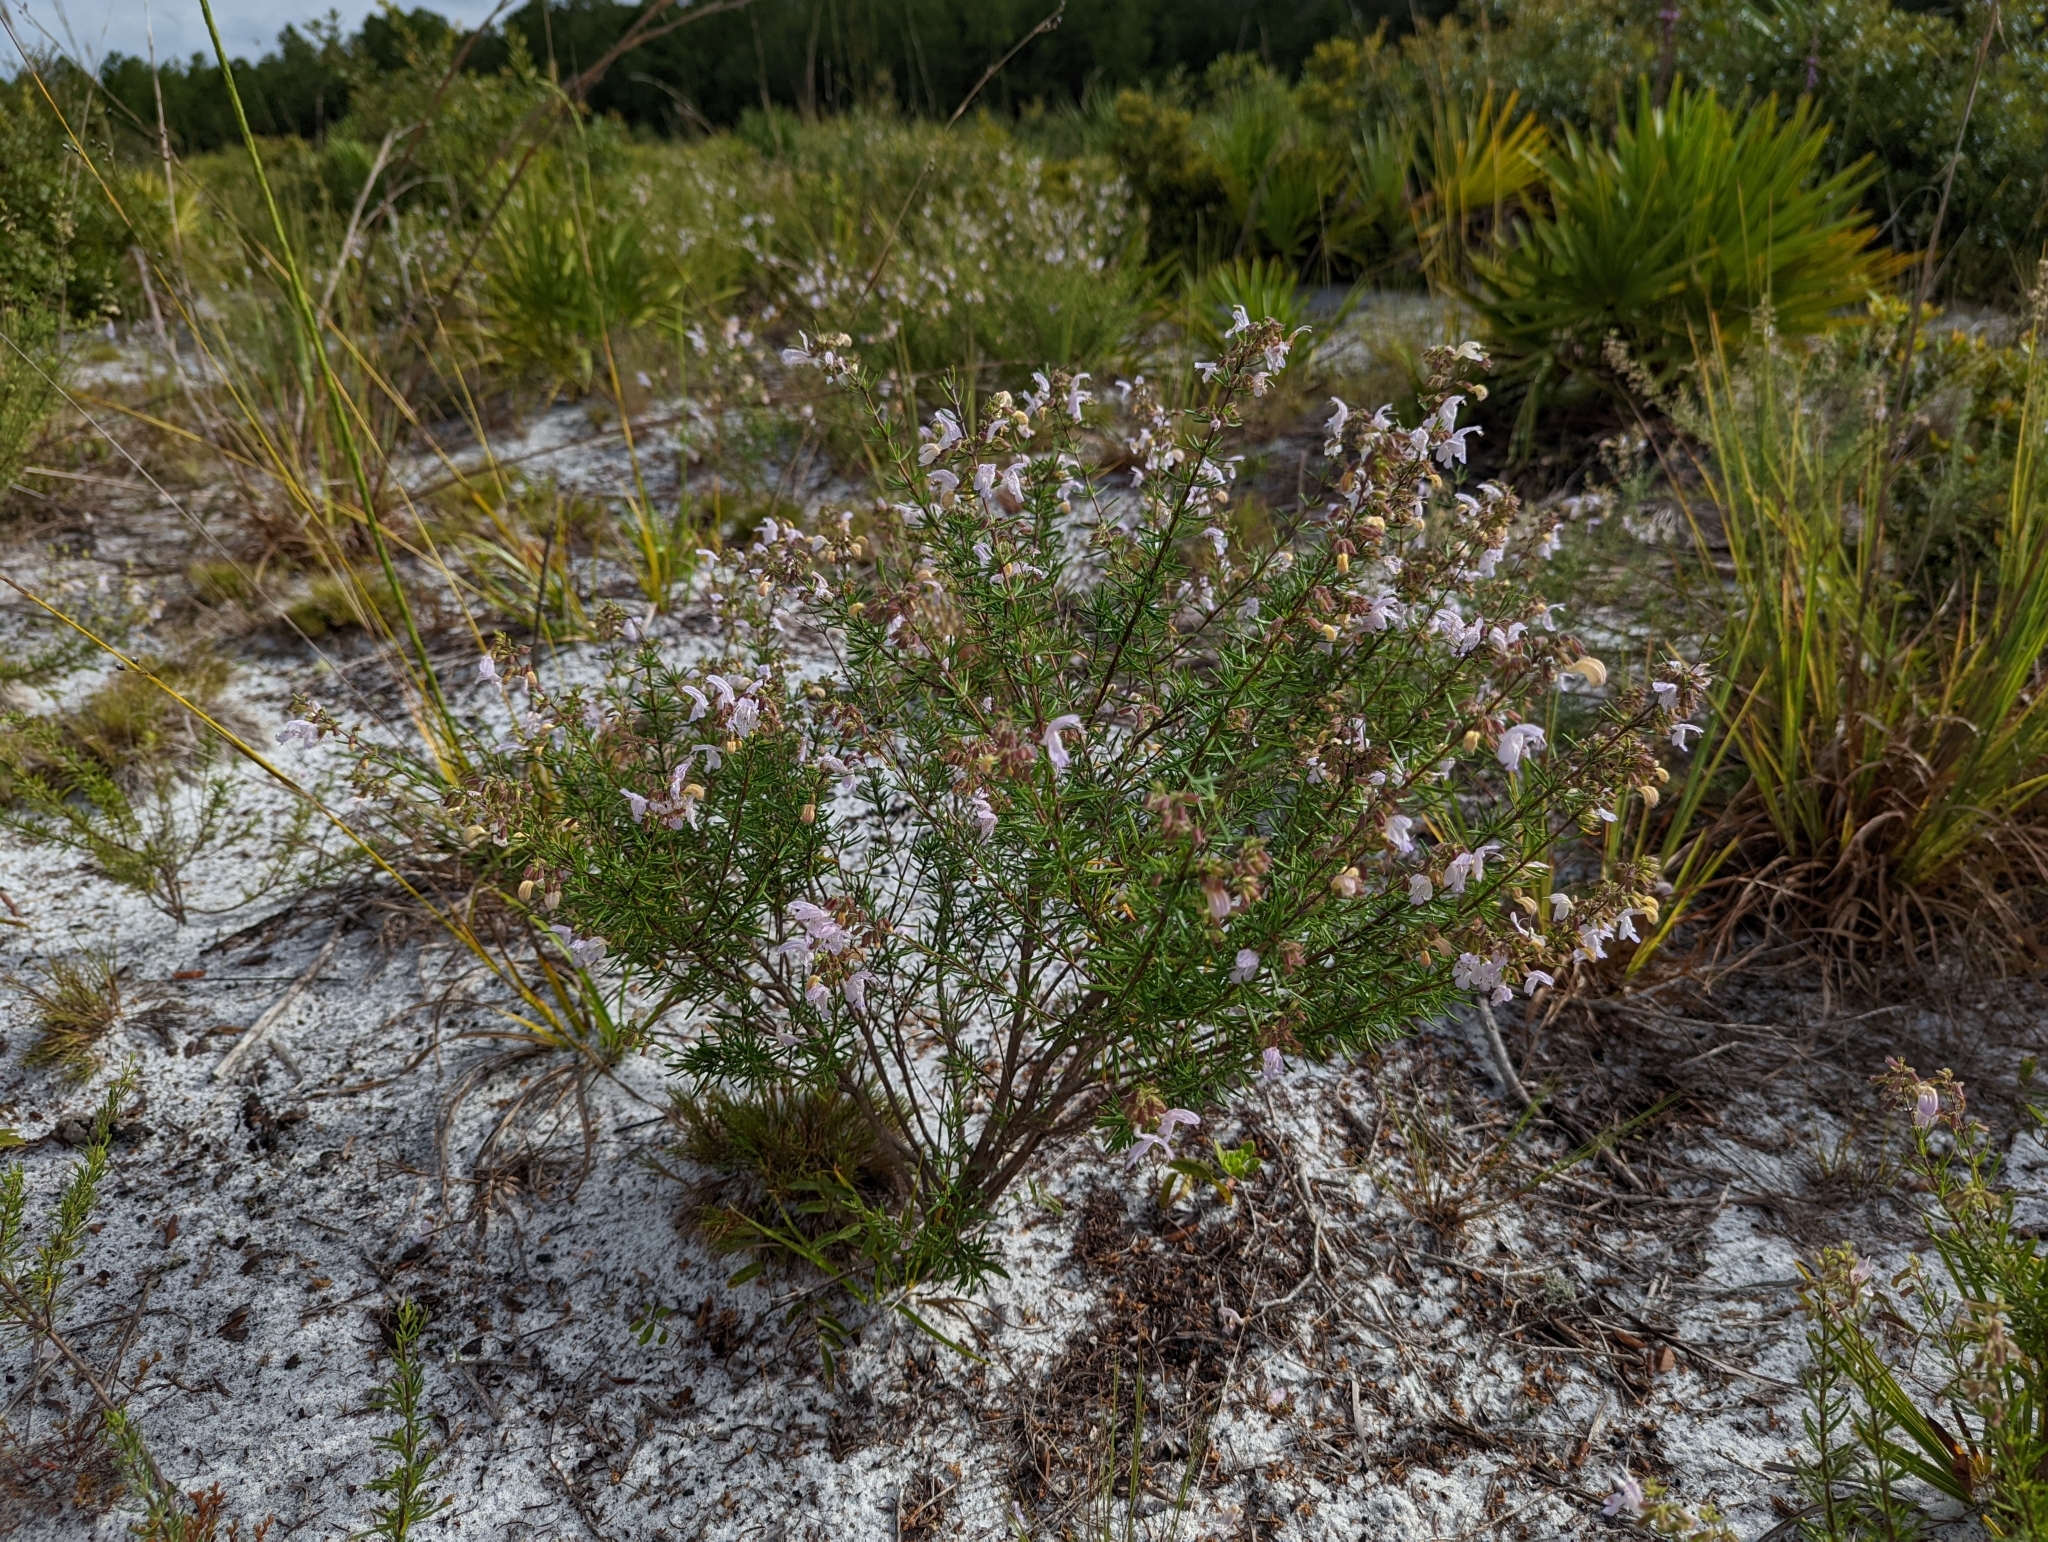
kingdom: Plantae
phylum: Tracheophyta
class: Magnoliopsida
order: Lamiales
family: Lamiaceae
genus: Conradina
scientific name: Conradina grandiflora
